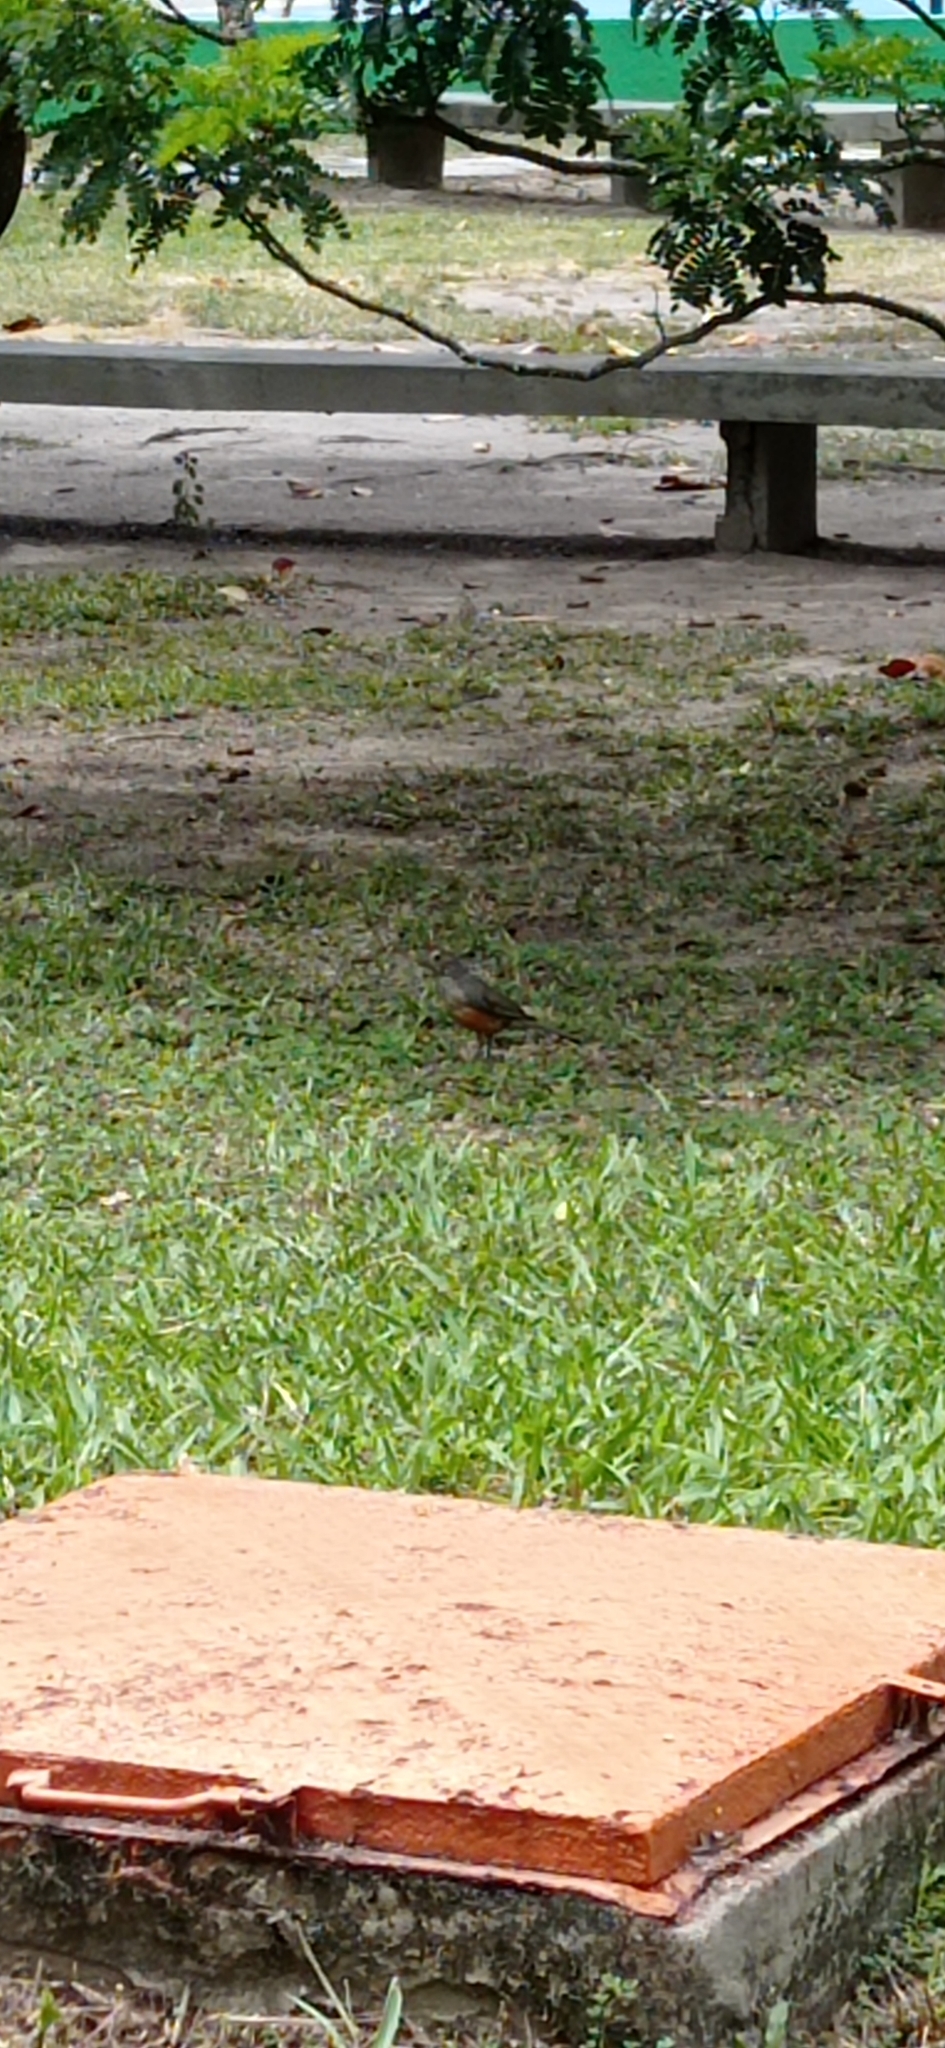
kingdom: Animalia
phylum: Chordata
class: Aves
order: Passeriformes
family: Turdidae
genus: Turdus
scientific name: Turdus rufiventris
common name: Rufous-bellied thrush
